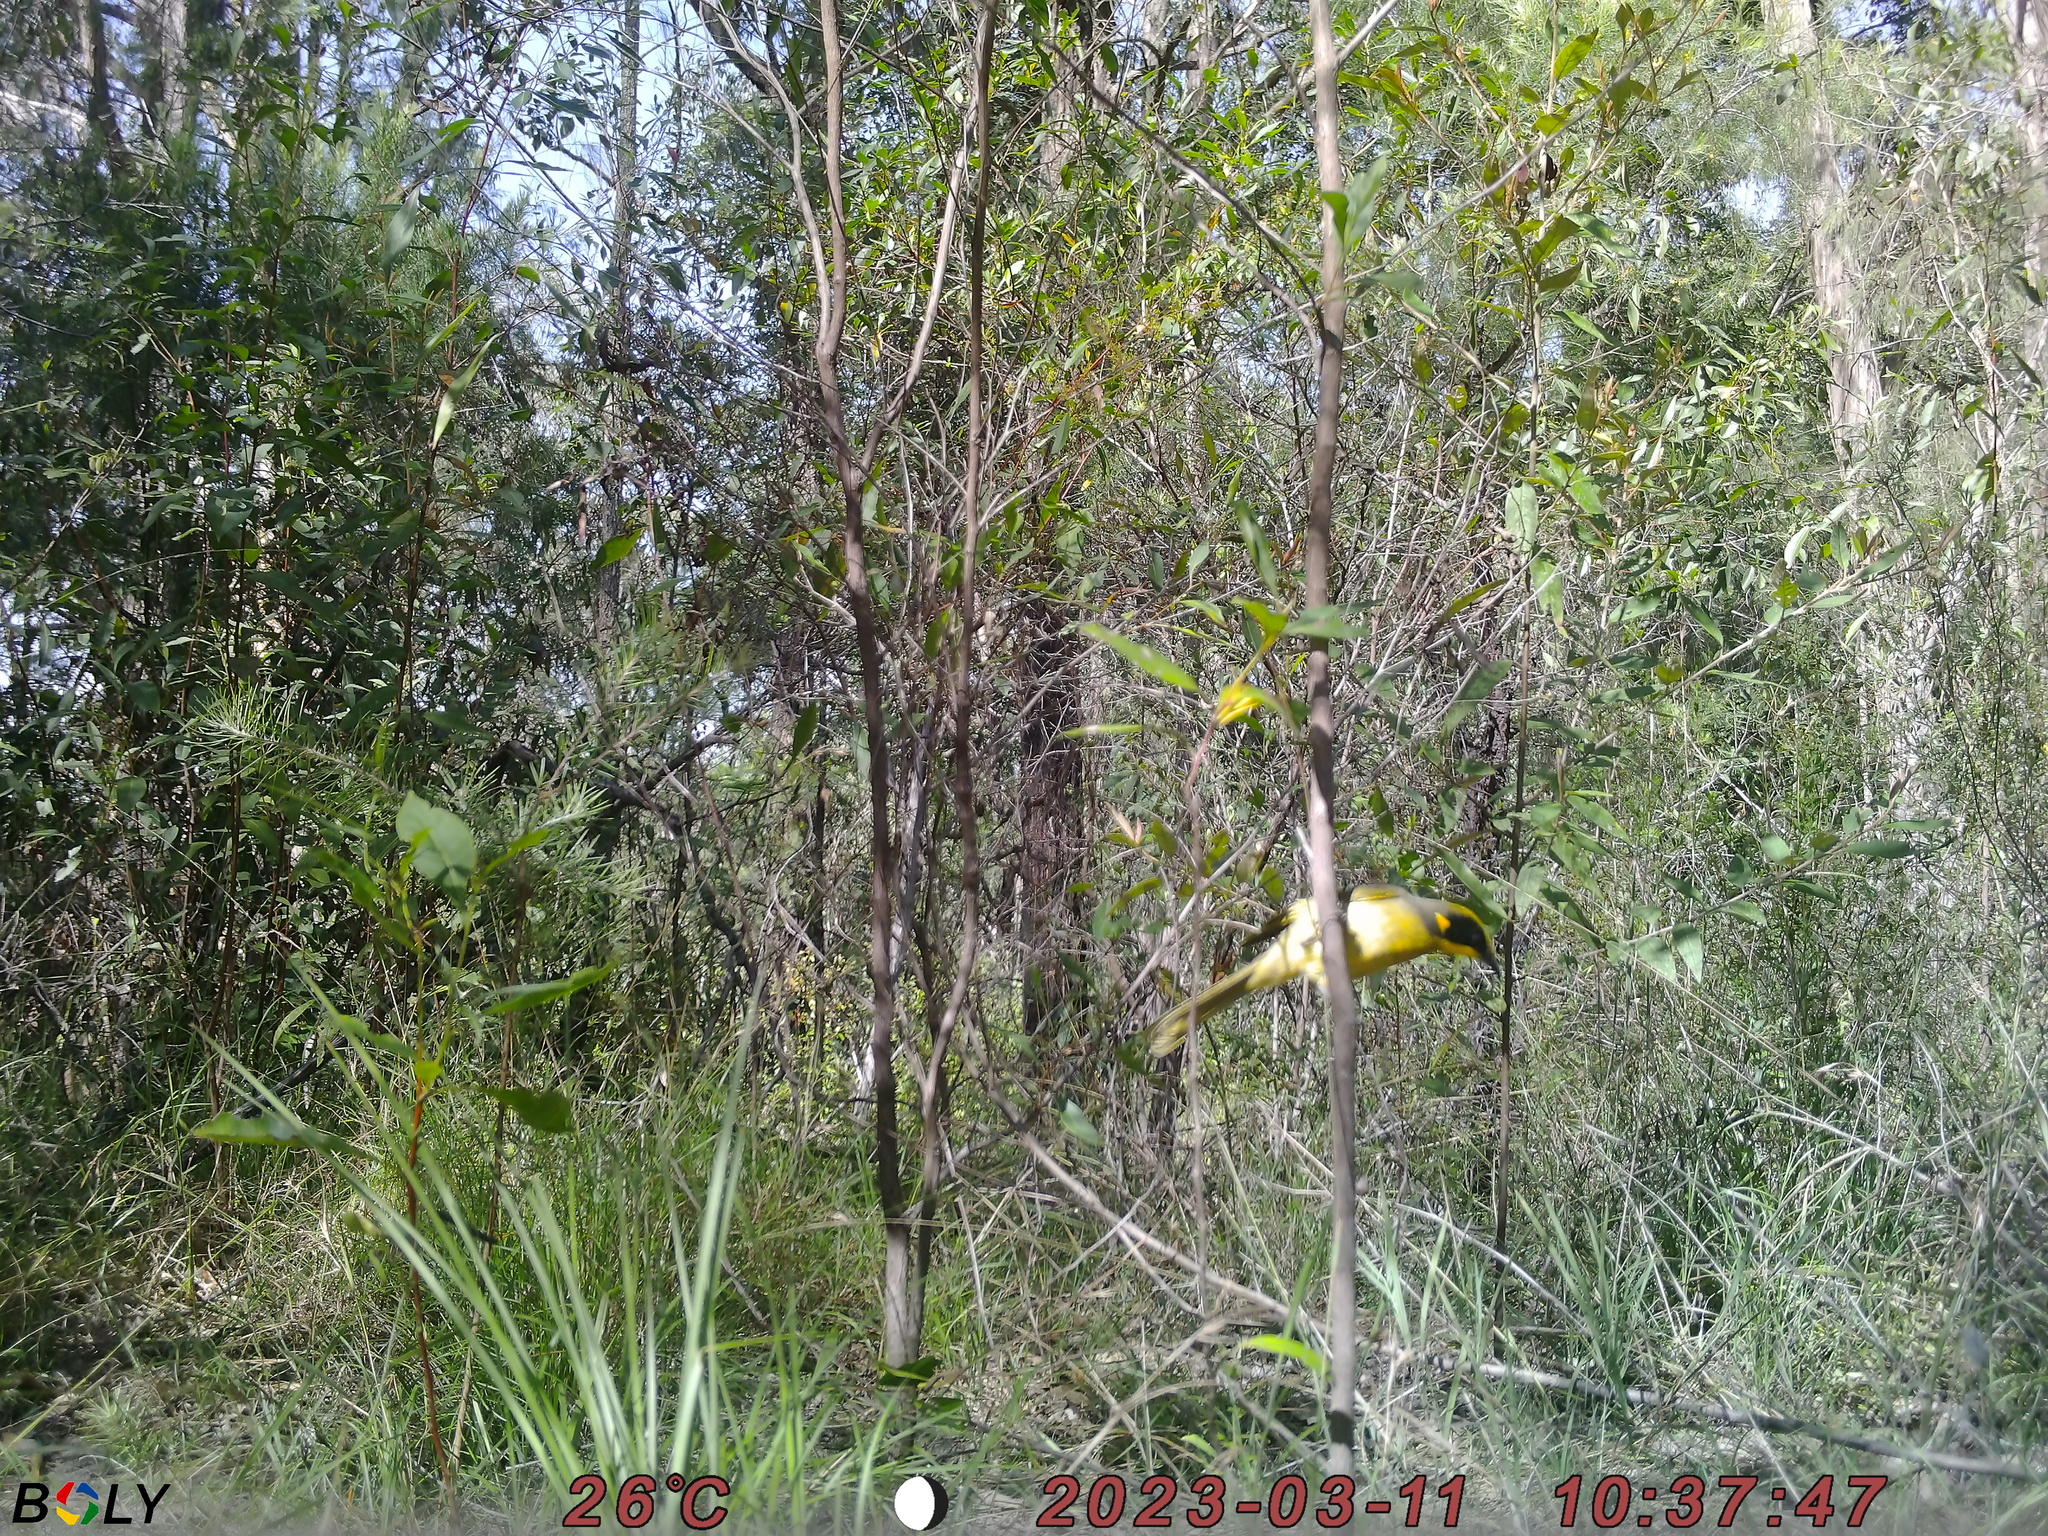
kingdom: Animalia
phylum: Chordata
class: Aves
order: Passeriformes
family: Meliphagidae
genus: Lichenostomus
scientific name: Lichenostomus melanops
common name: Yellow-tufted honeyeater
